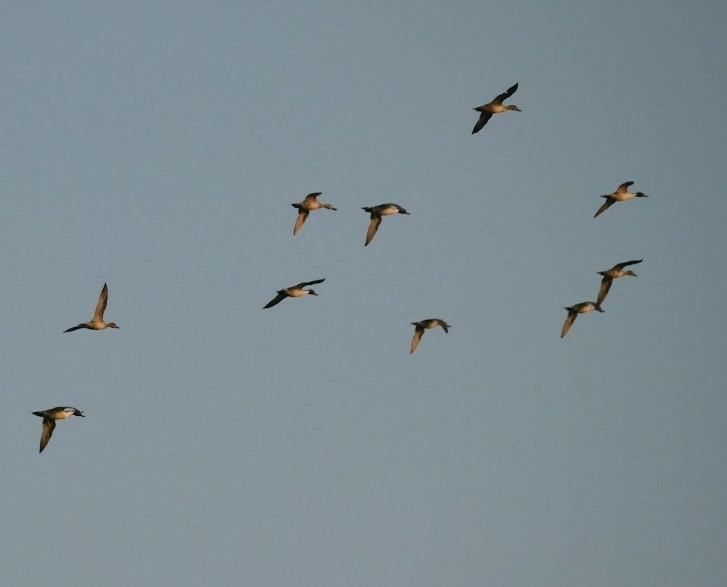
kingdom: Animalia
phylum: Chordata
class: Aves
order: Anseriformes
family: Anatidae
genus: Anas
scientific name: Anas acuta
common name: Northern pintail
